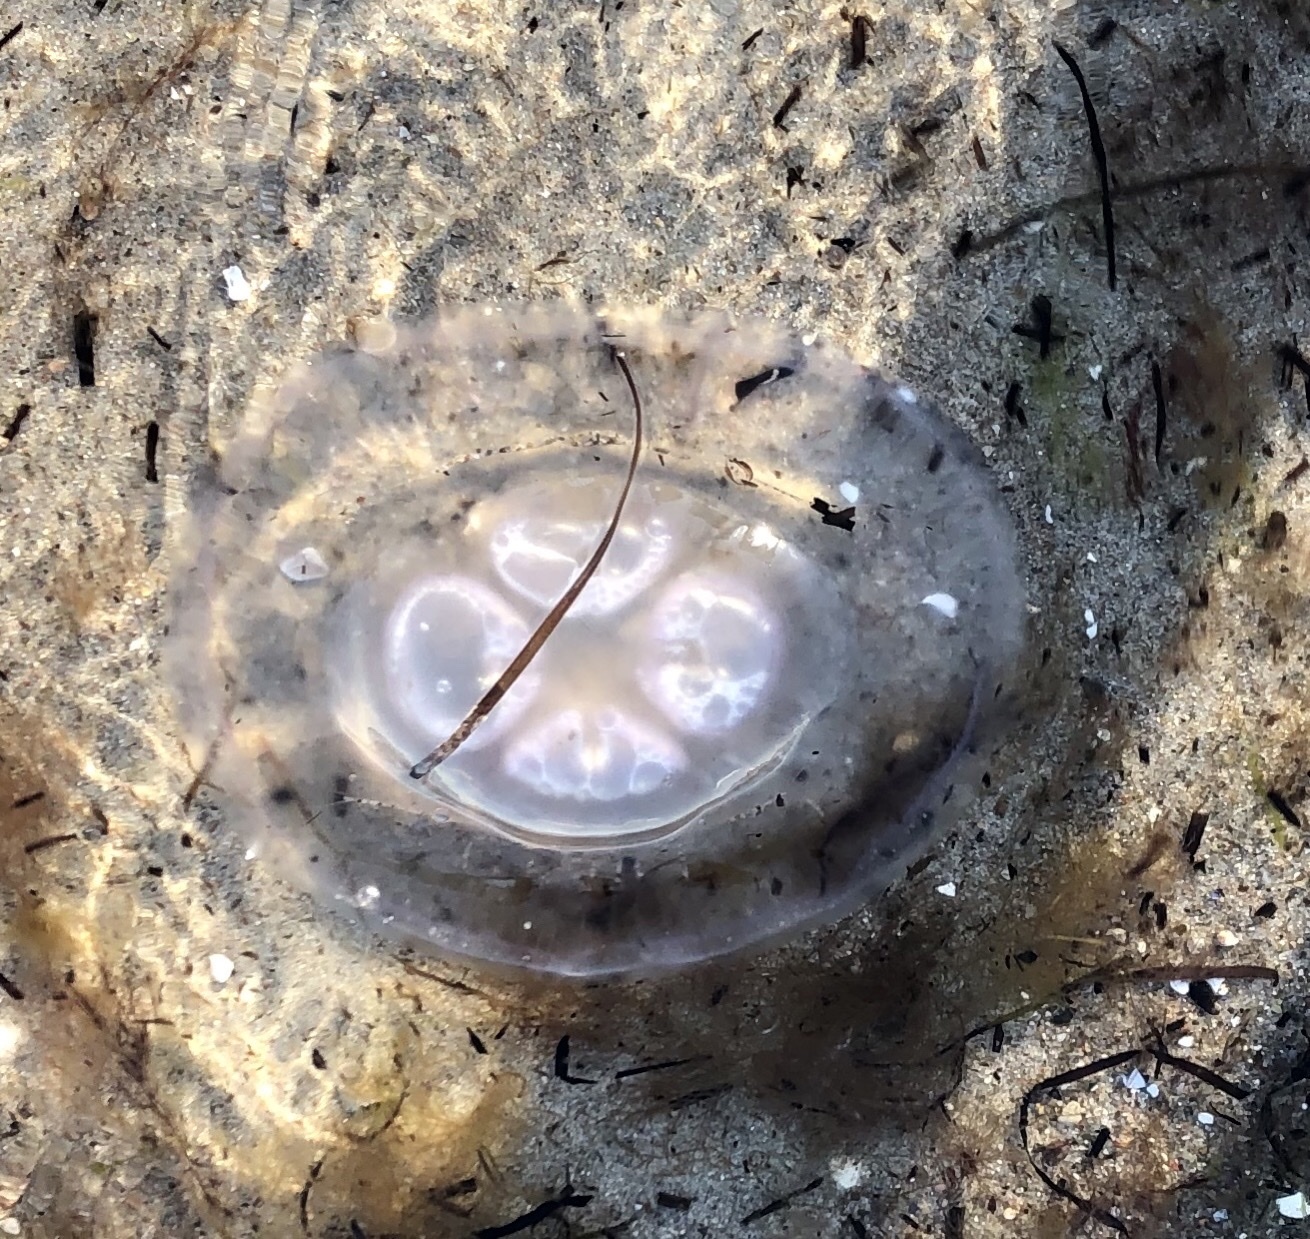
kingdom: Animalia
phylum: Cnidaria
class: Scyphozoa
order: Semaeostomeae
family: Ulmaridae
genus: Aurelia
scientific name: Aurelia aurita
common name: Moon jellyfish
